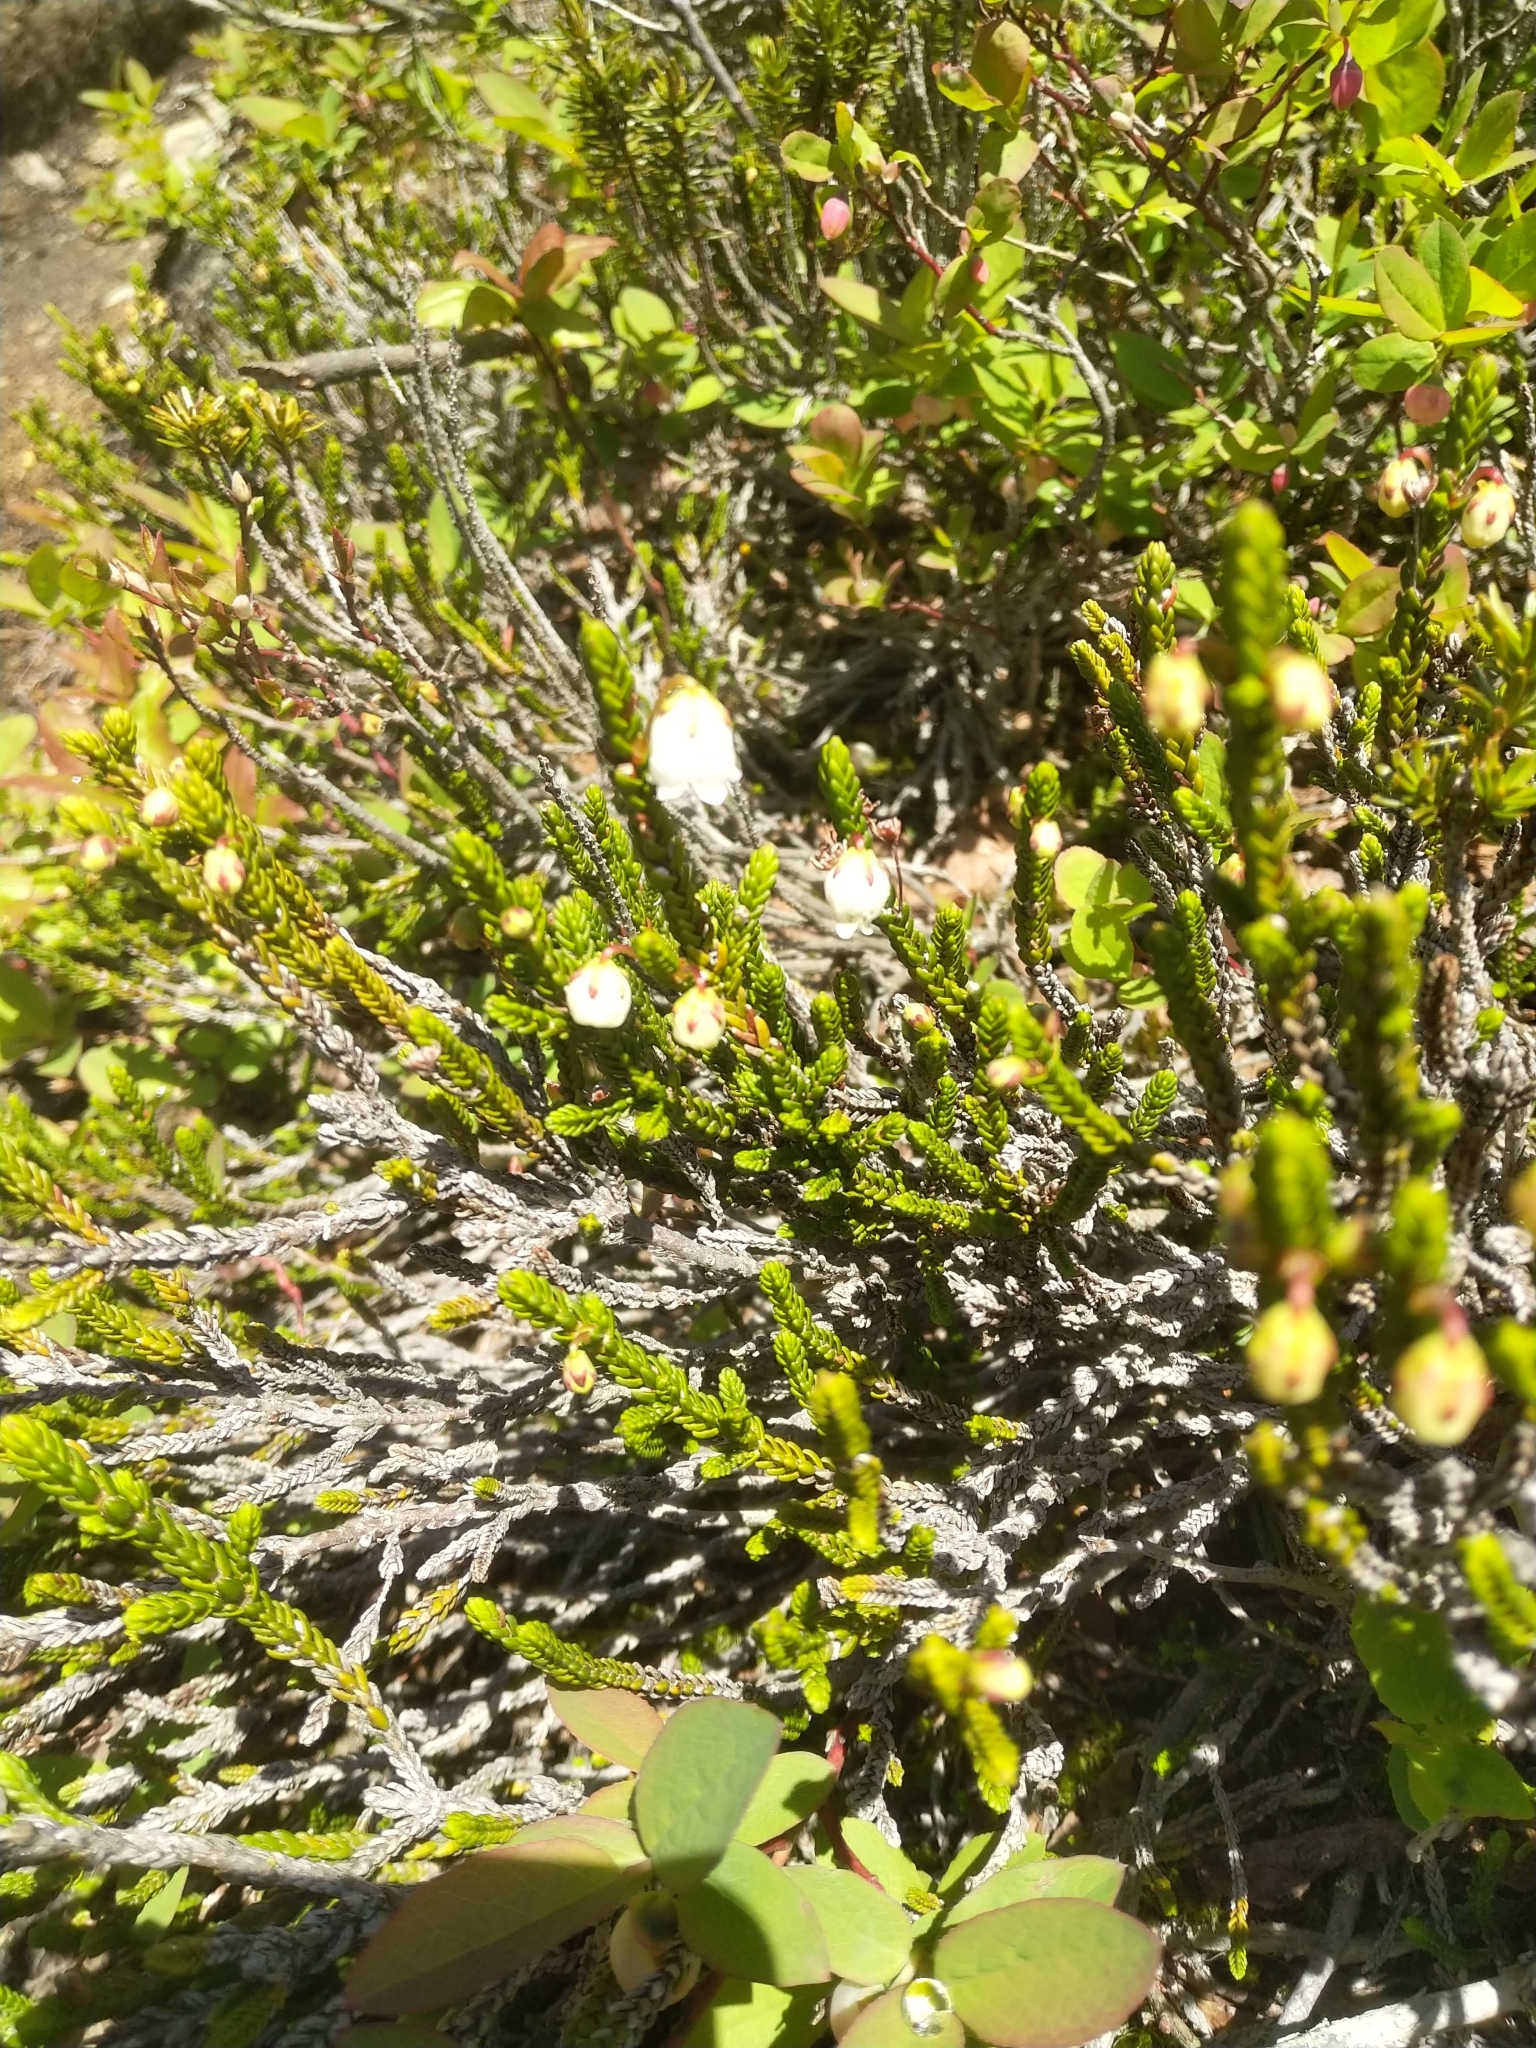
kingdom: Plantae
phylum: Tracheophyta
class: Magnoliopsida
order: Ericales
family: Ericaceae
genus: Cassiope
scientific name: Cassiope mertensiana
